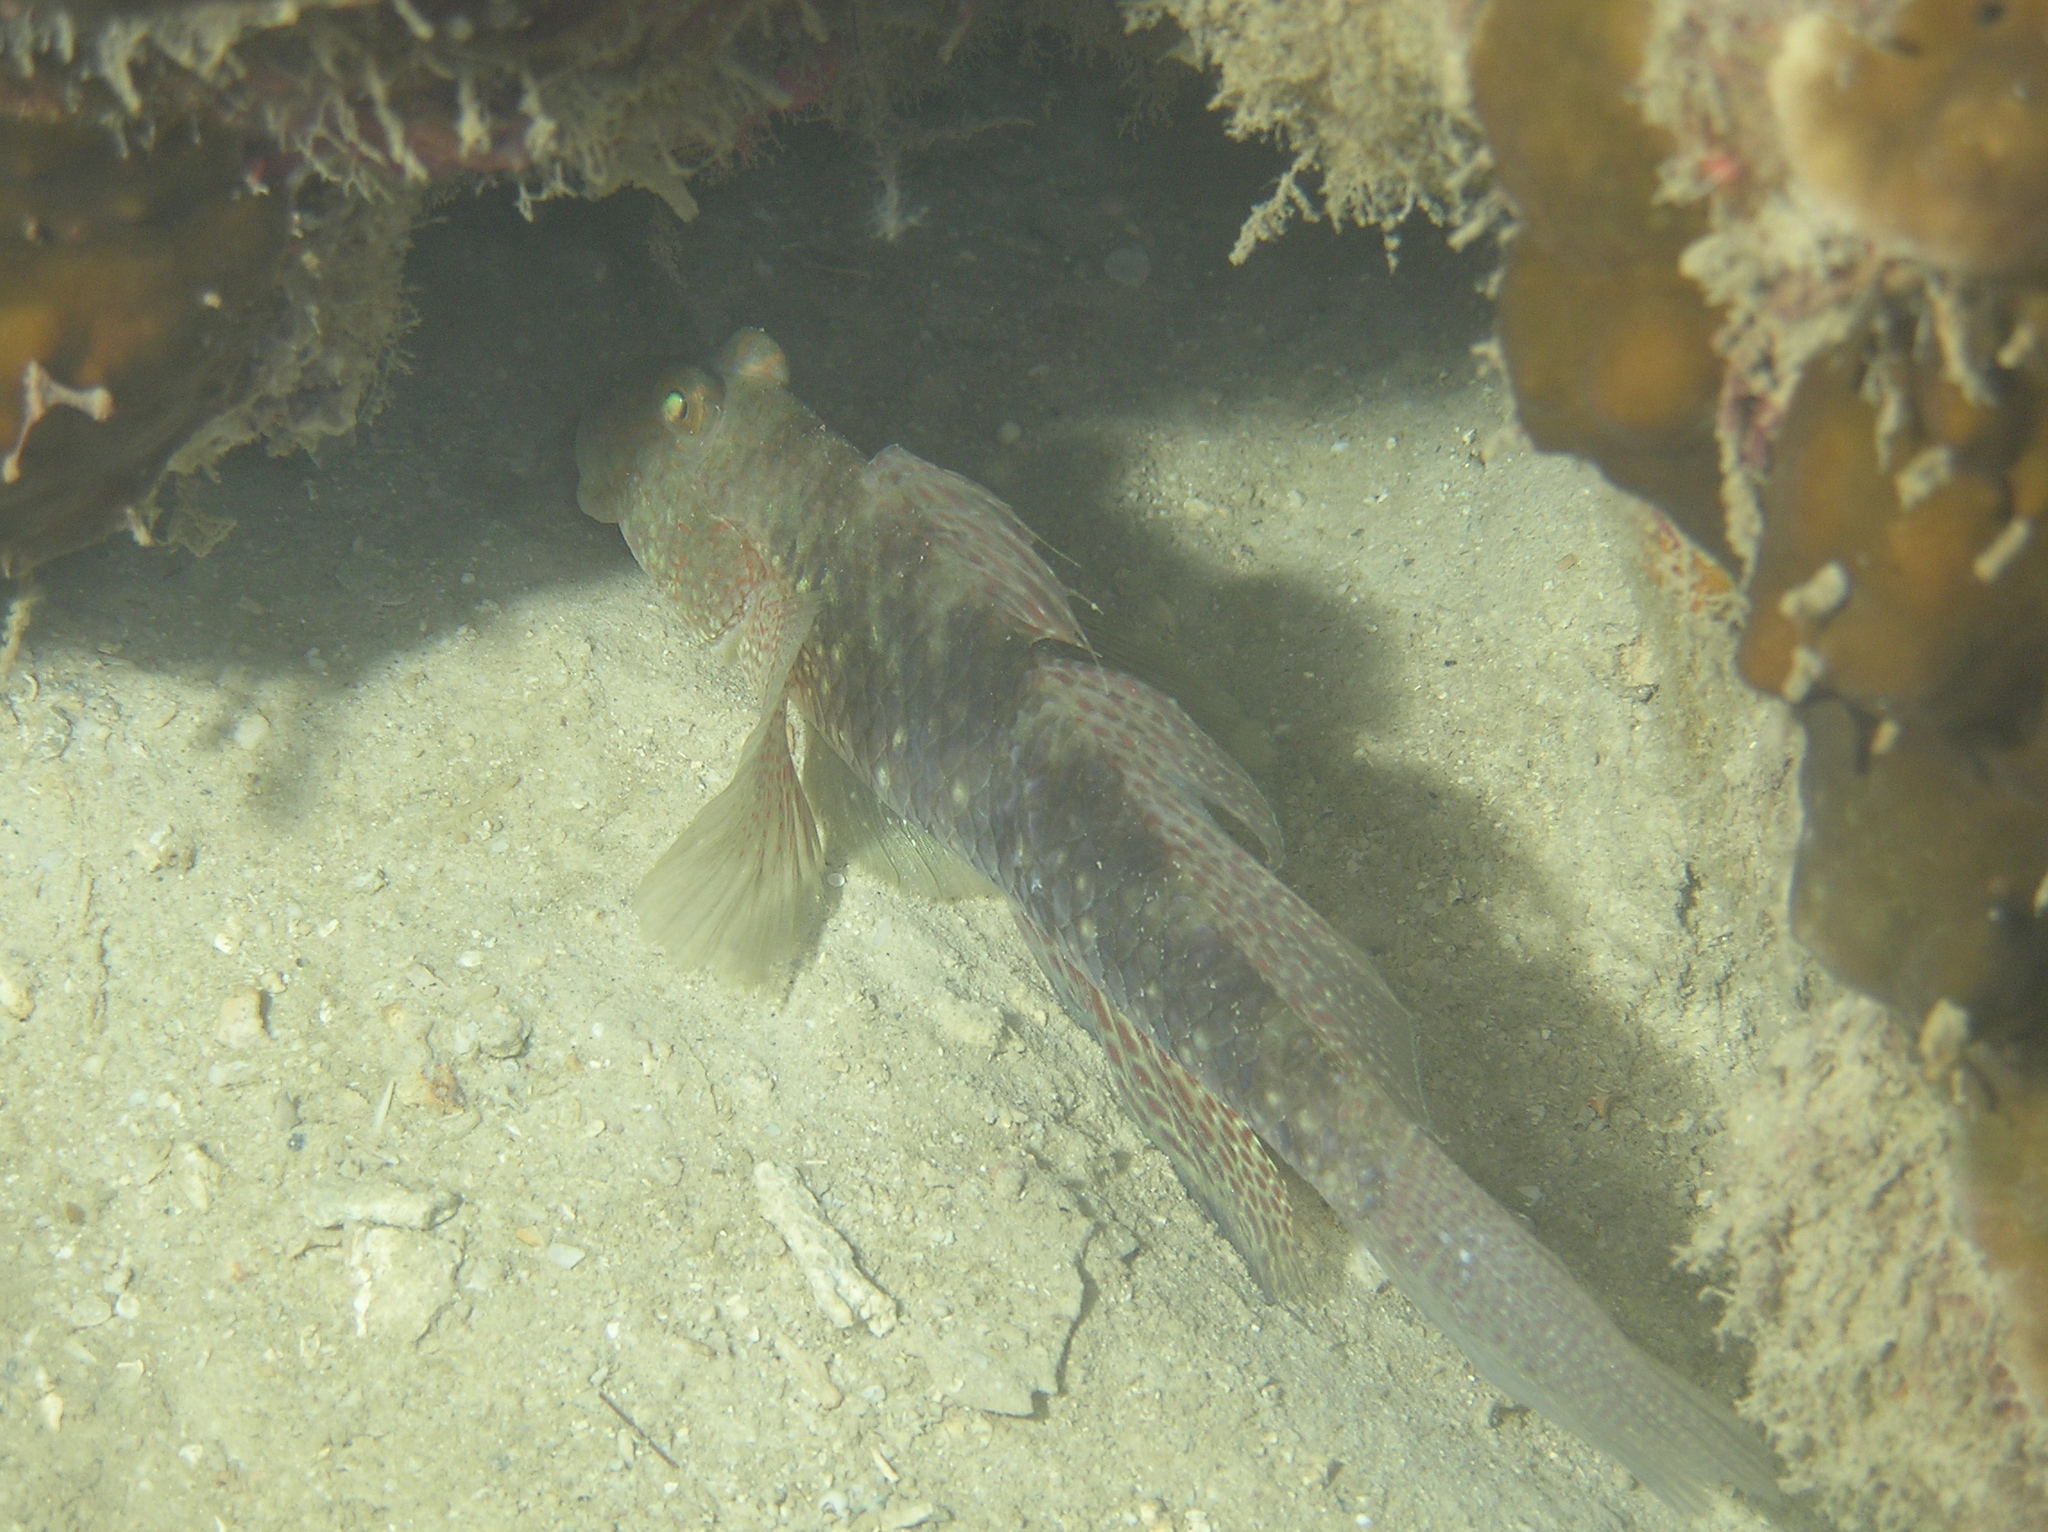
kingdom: Animalia
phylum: Chordata
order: Perciformes
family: Gobiidae
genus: Exyrias
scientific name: Exyrias belissimus
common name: Mud reef-goby
